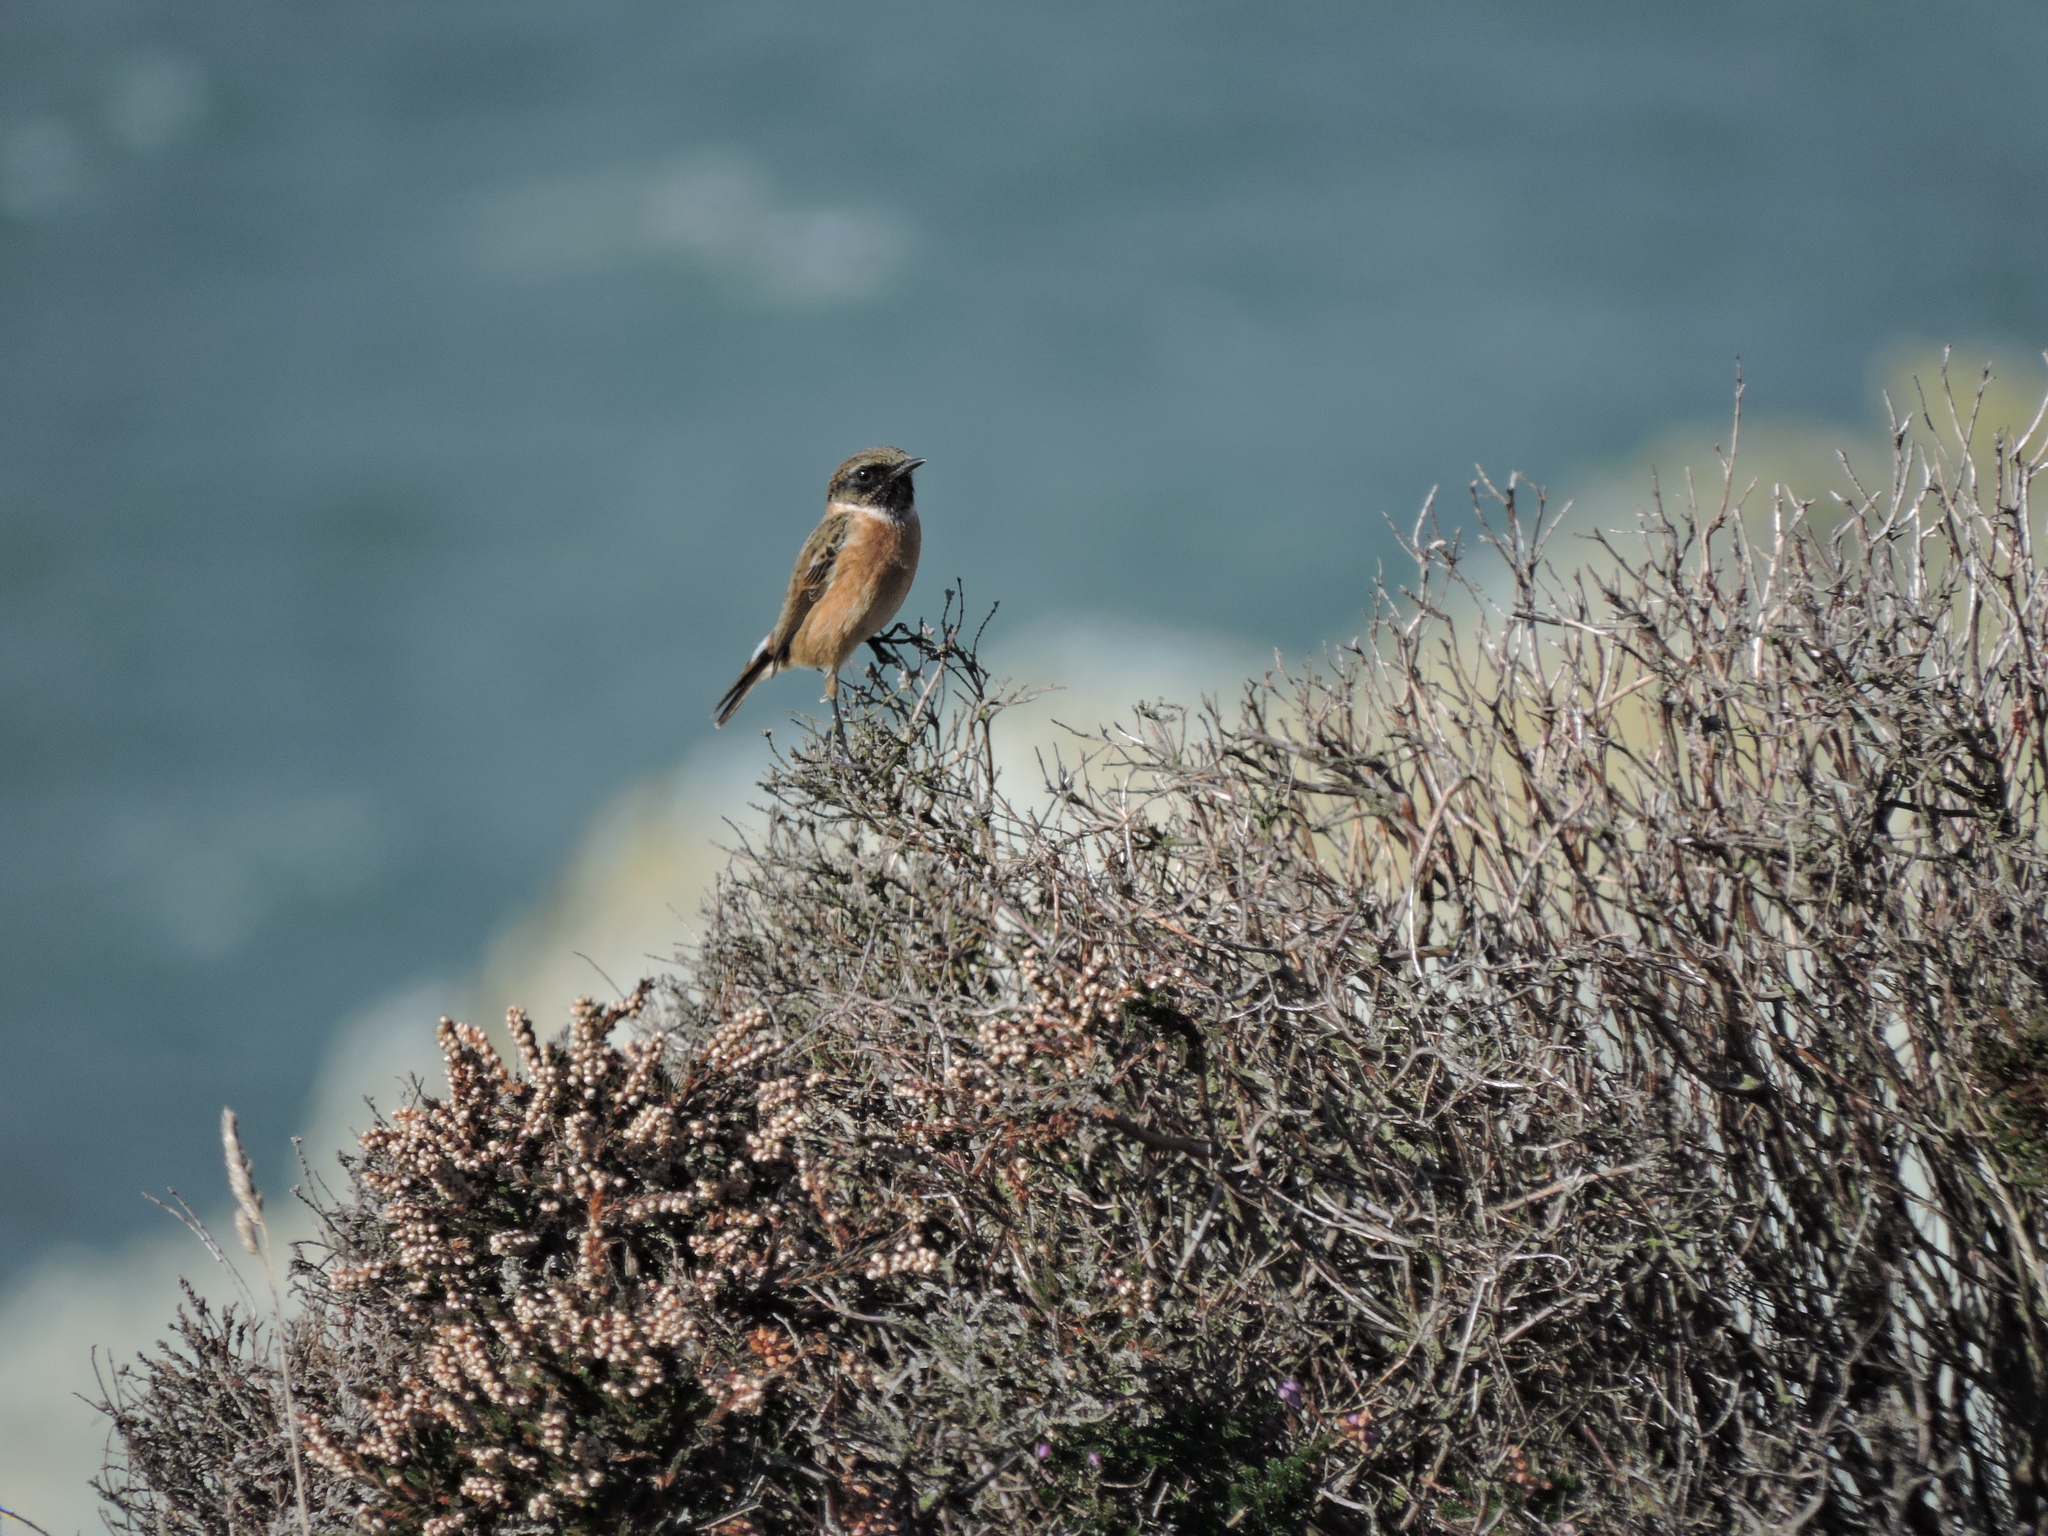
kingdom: Animalia
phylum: Chordata
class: Aves
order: Passeriformes
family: Muscicapidae
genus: Saxicola
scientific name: Saxicola rubicola
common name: European stonechat
